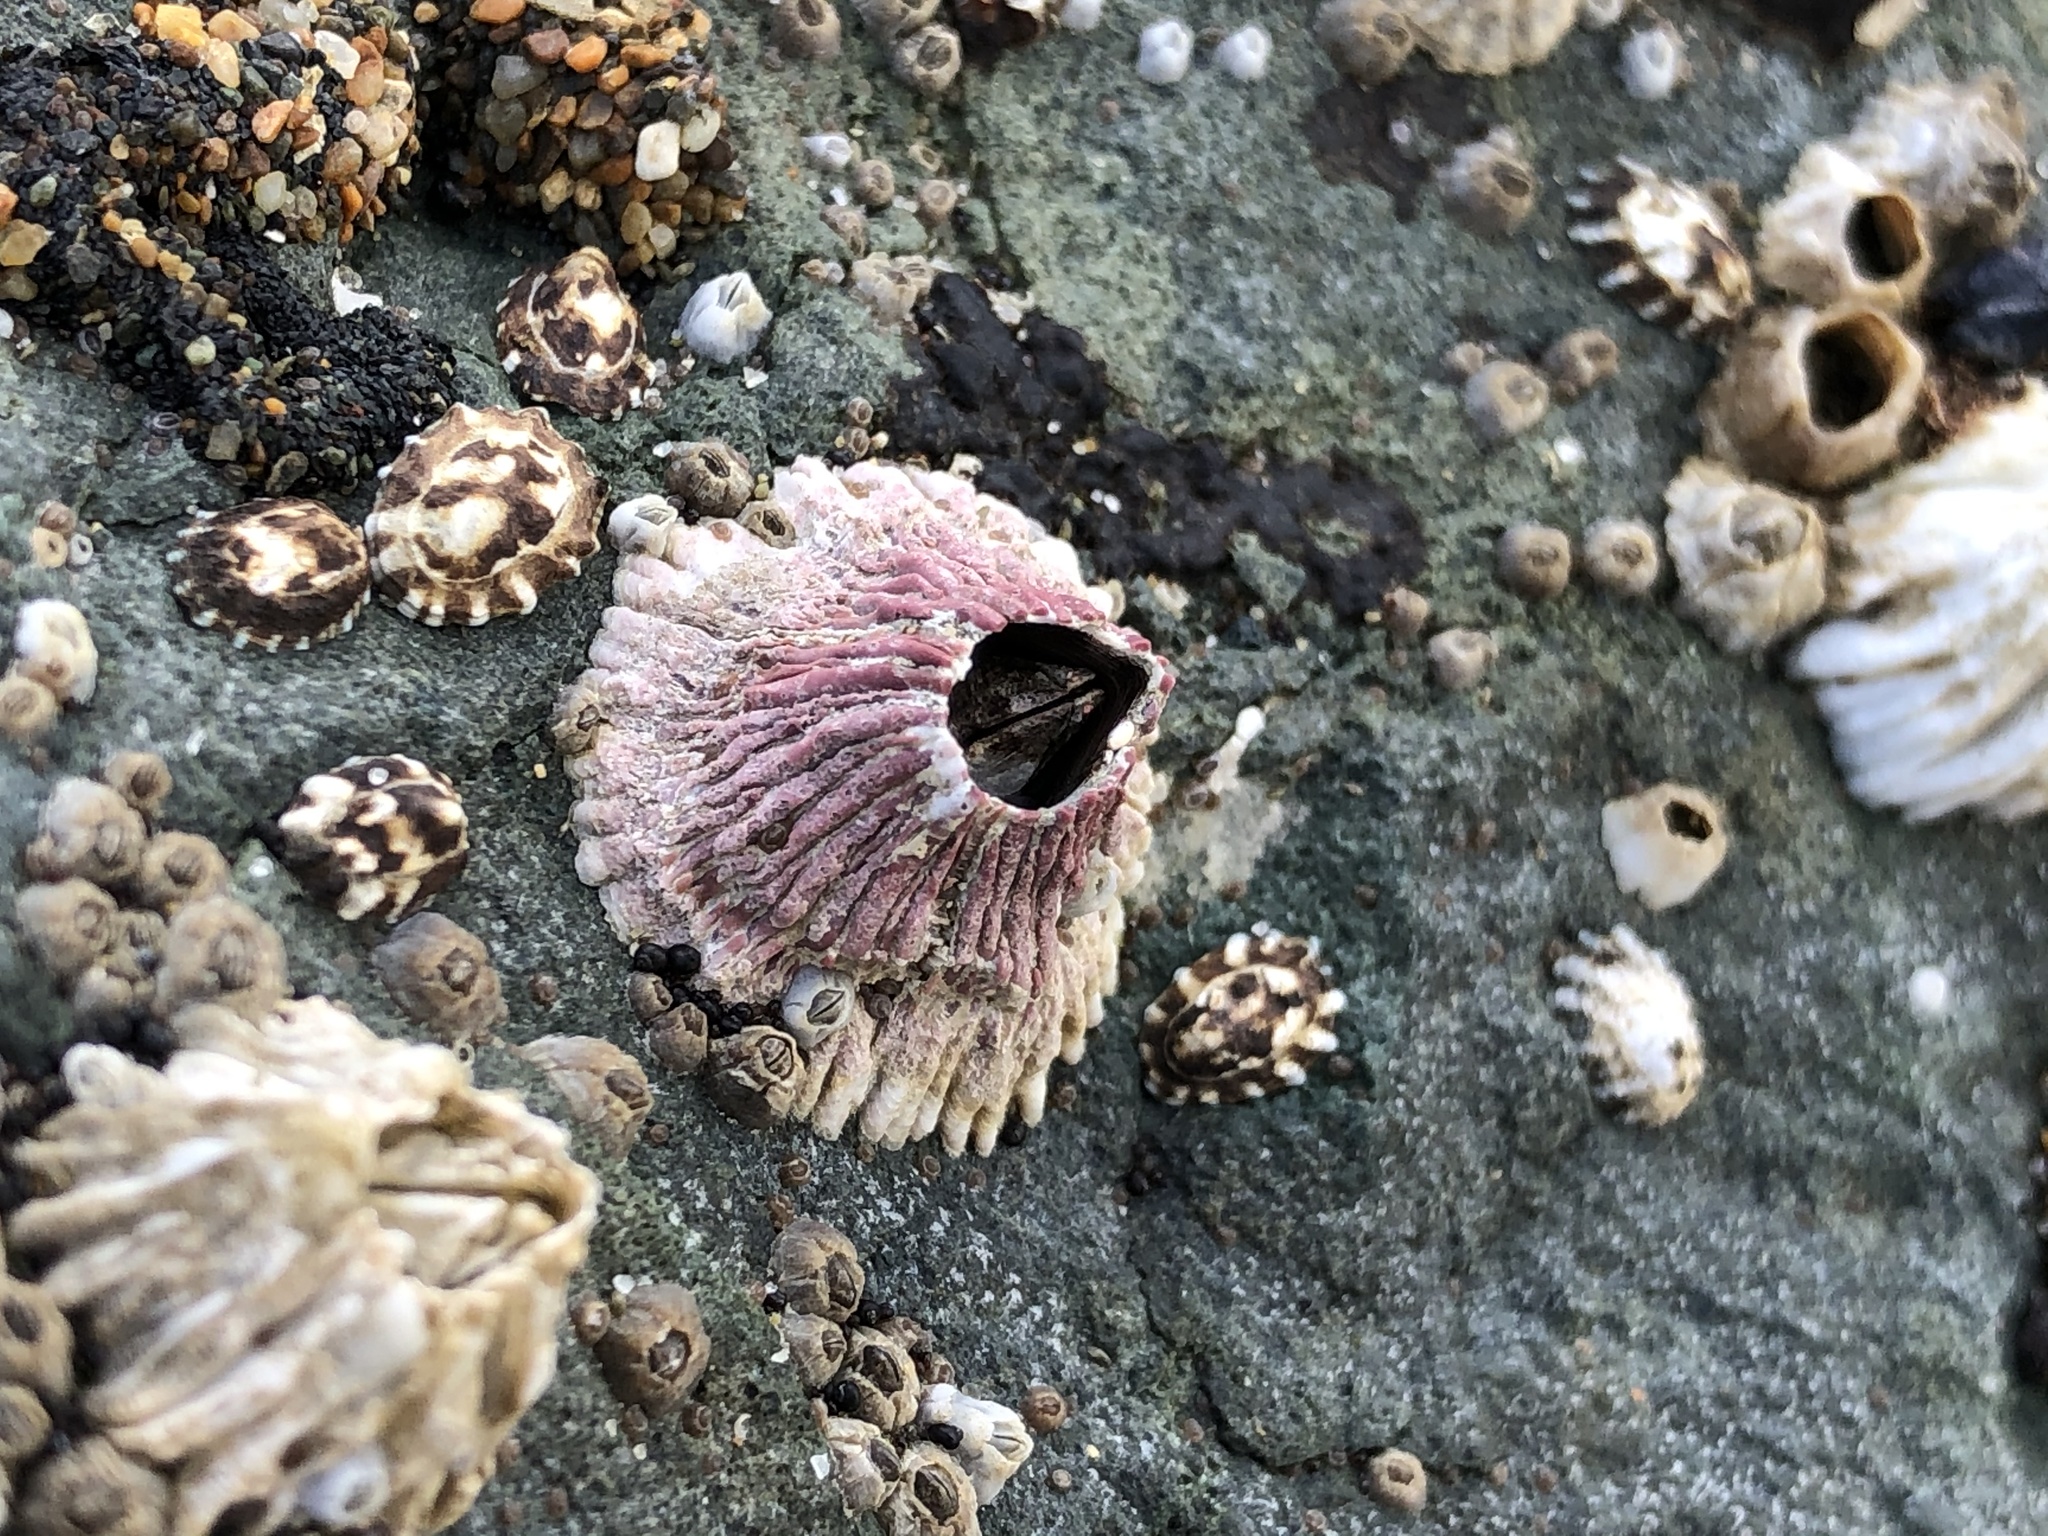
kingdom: Animalia
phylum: Arthropoda
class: Maxillopoda
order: Sessilia
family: Tetraclitidae
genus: Tetraclita
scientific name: Tetraclita rubescens
